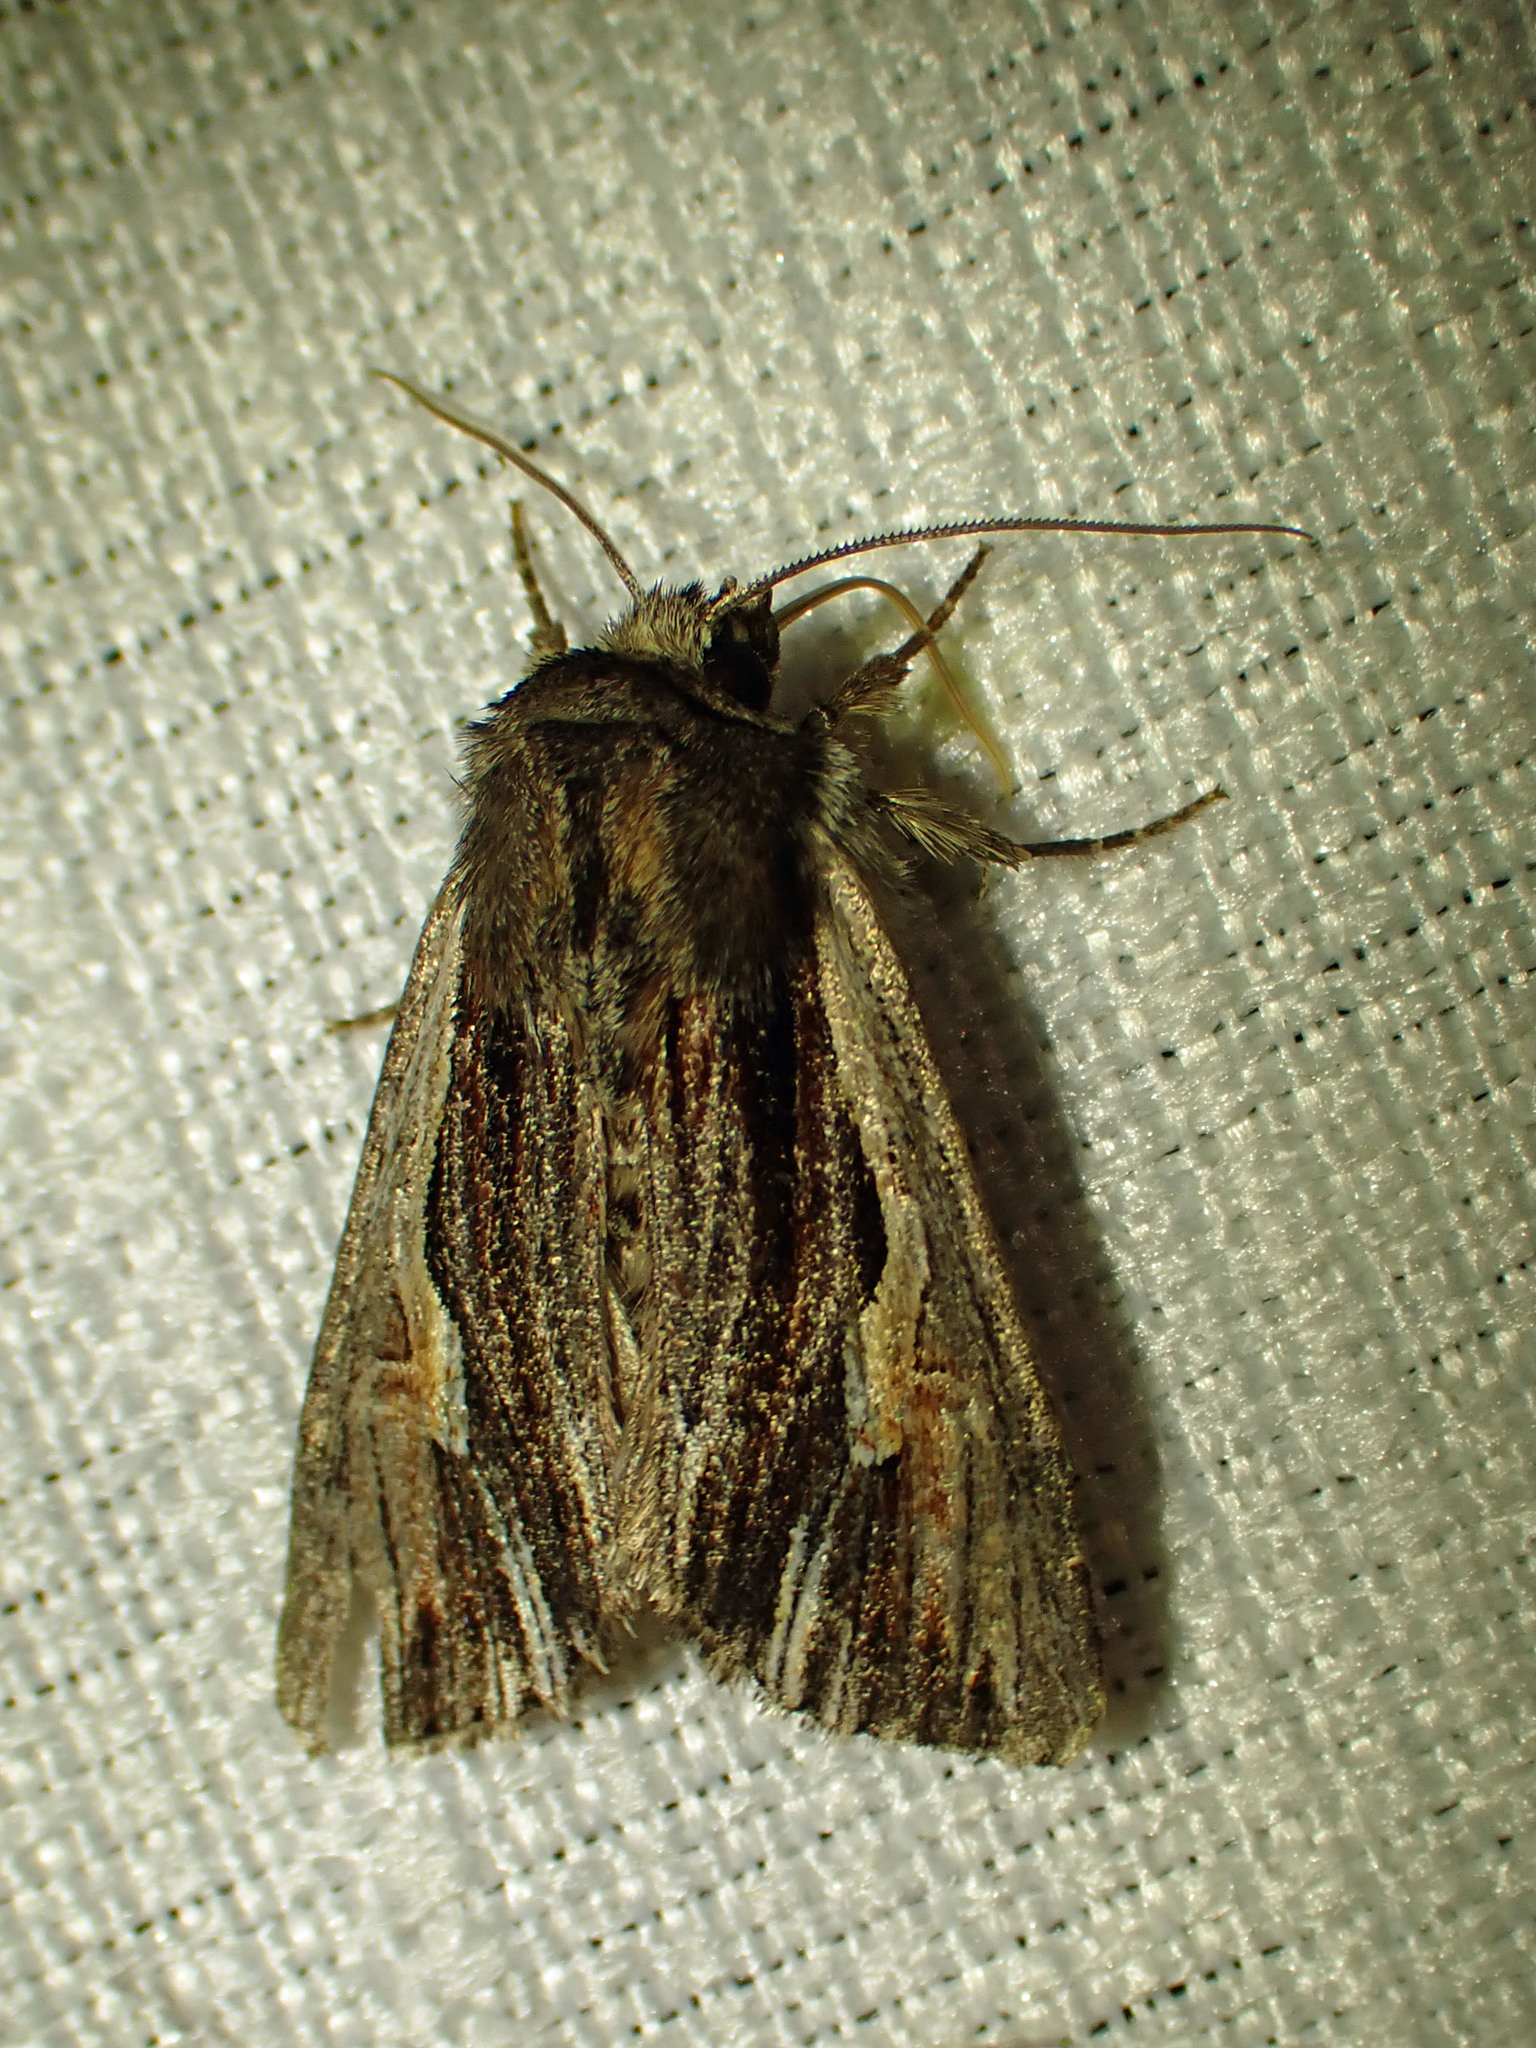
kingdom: Animalia
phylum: Arthropoda
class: Insecta
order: Lepidoptera
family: Noctuidae
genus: Achatia
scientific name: Achatia evicta
